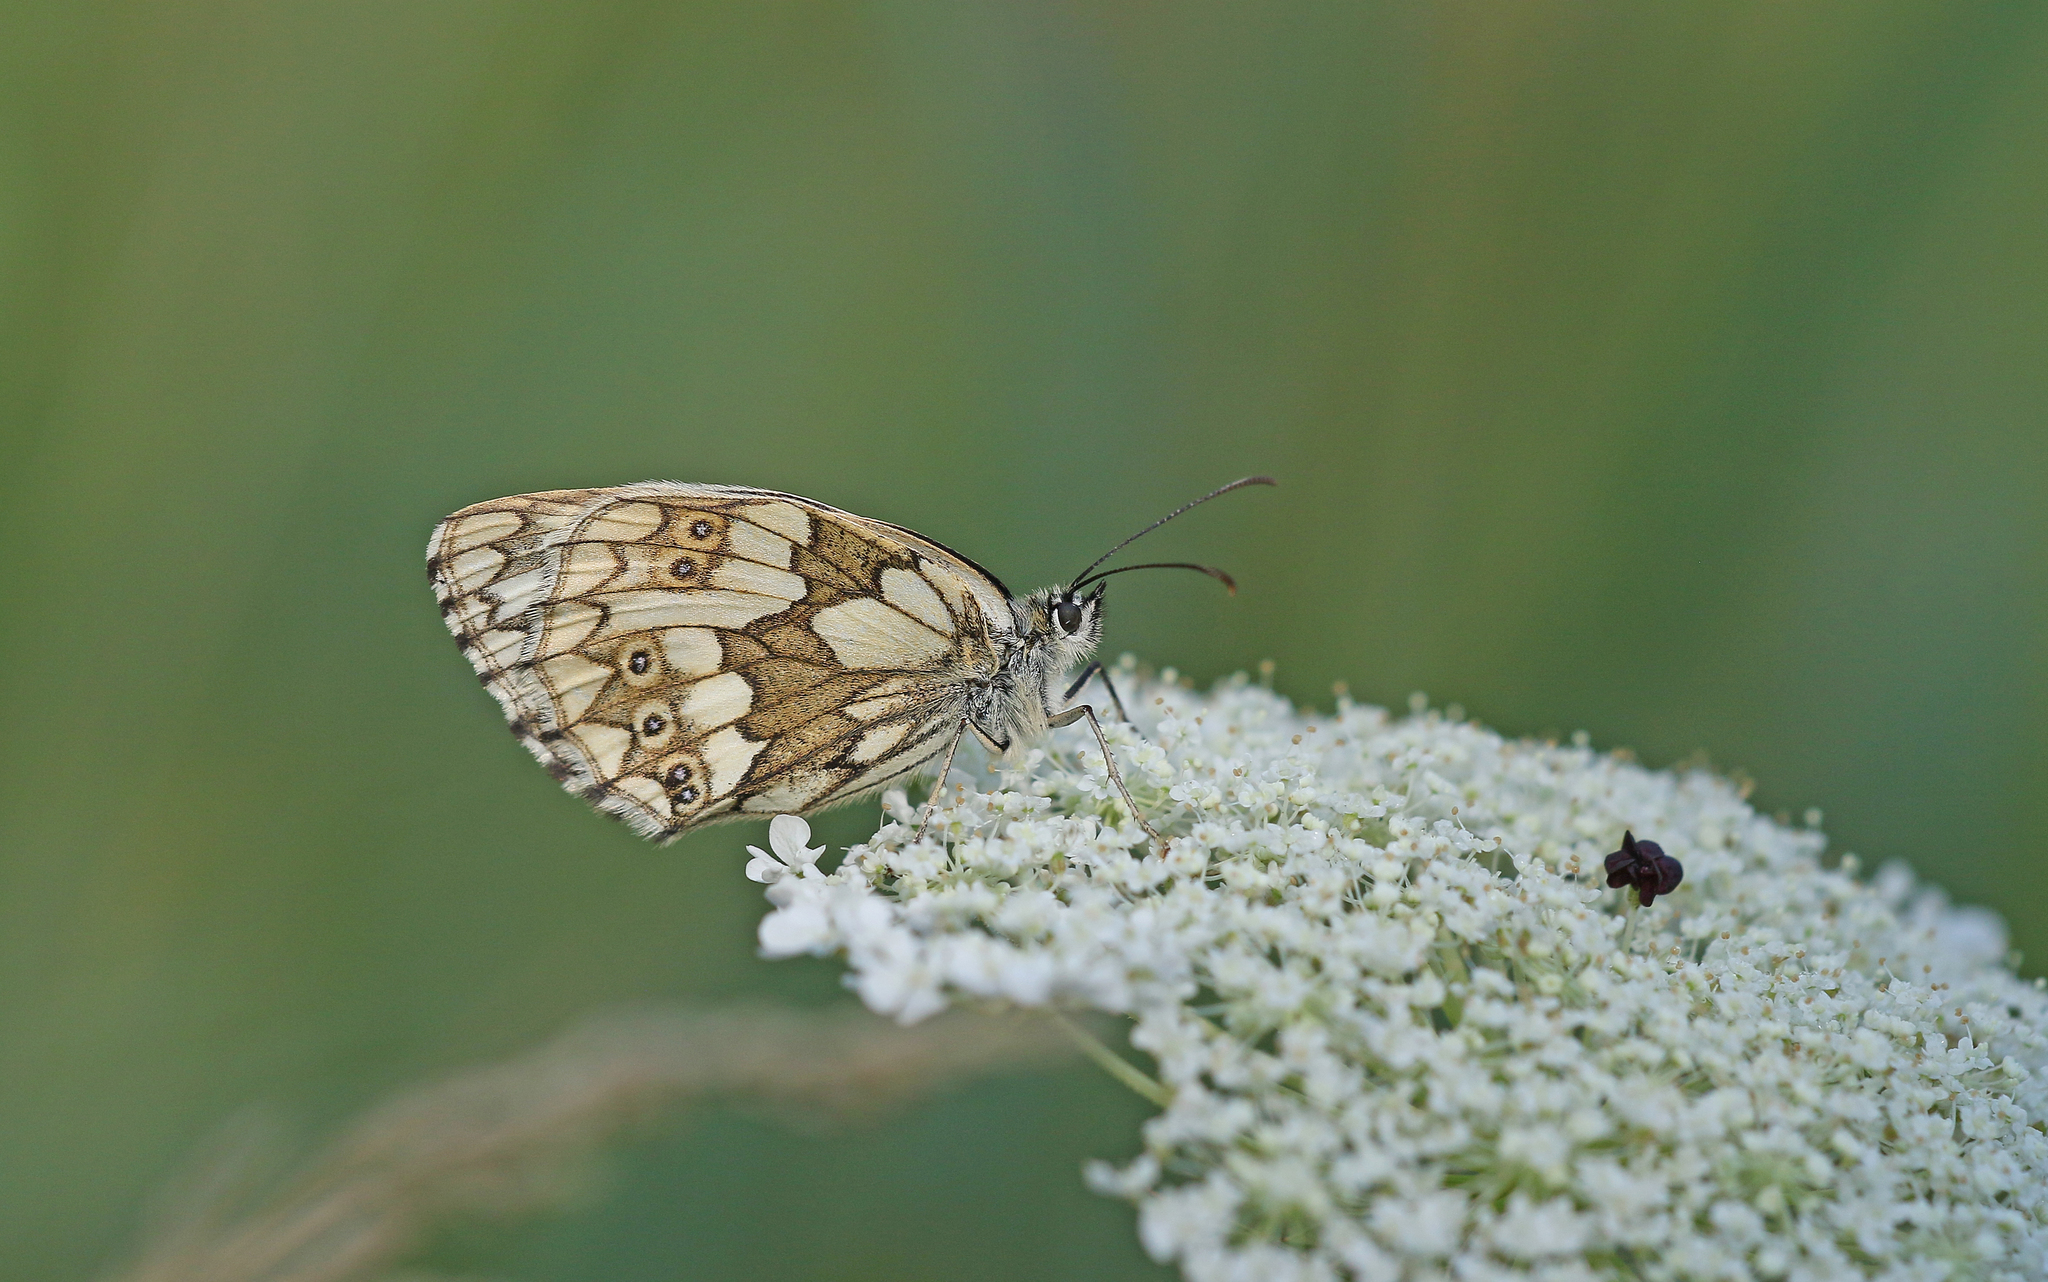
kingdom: Animalia
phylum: Arthropoda
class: Insecta
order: Lepidoptera
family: Nymphalidae
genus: Melanargia
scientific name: Melanargia galathea
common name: Marbled white
